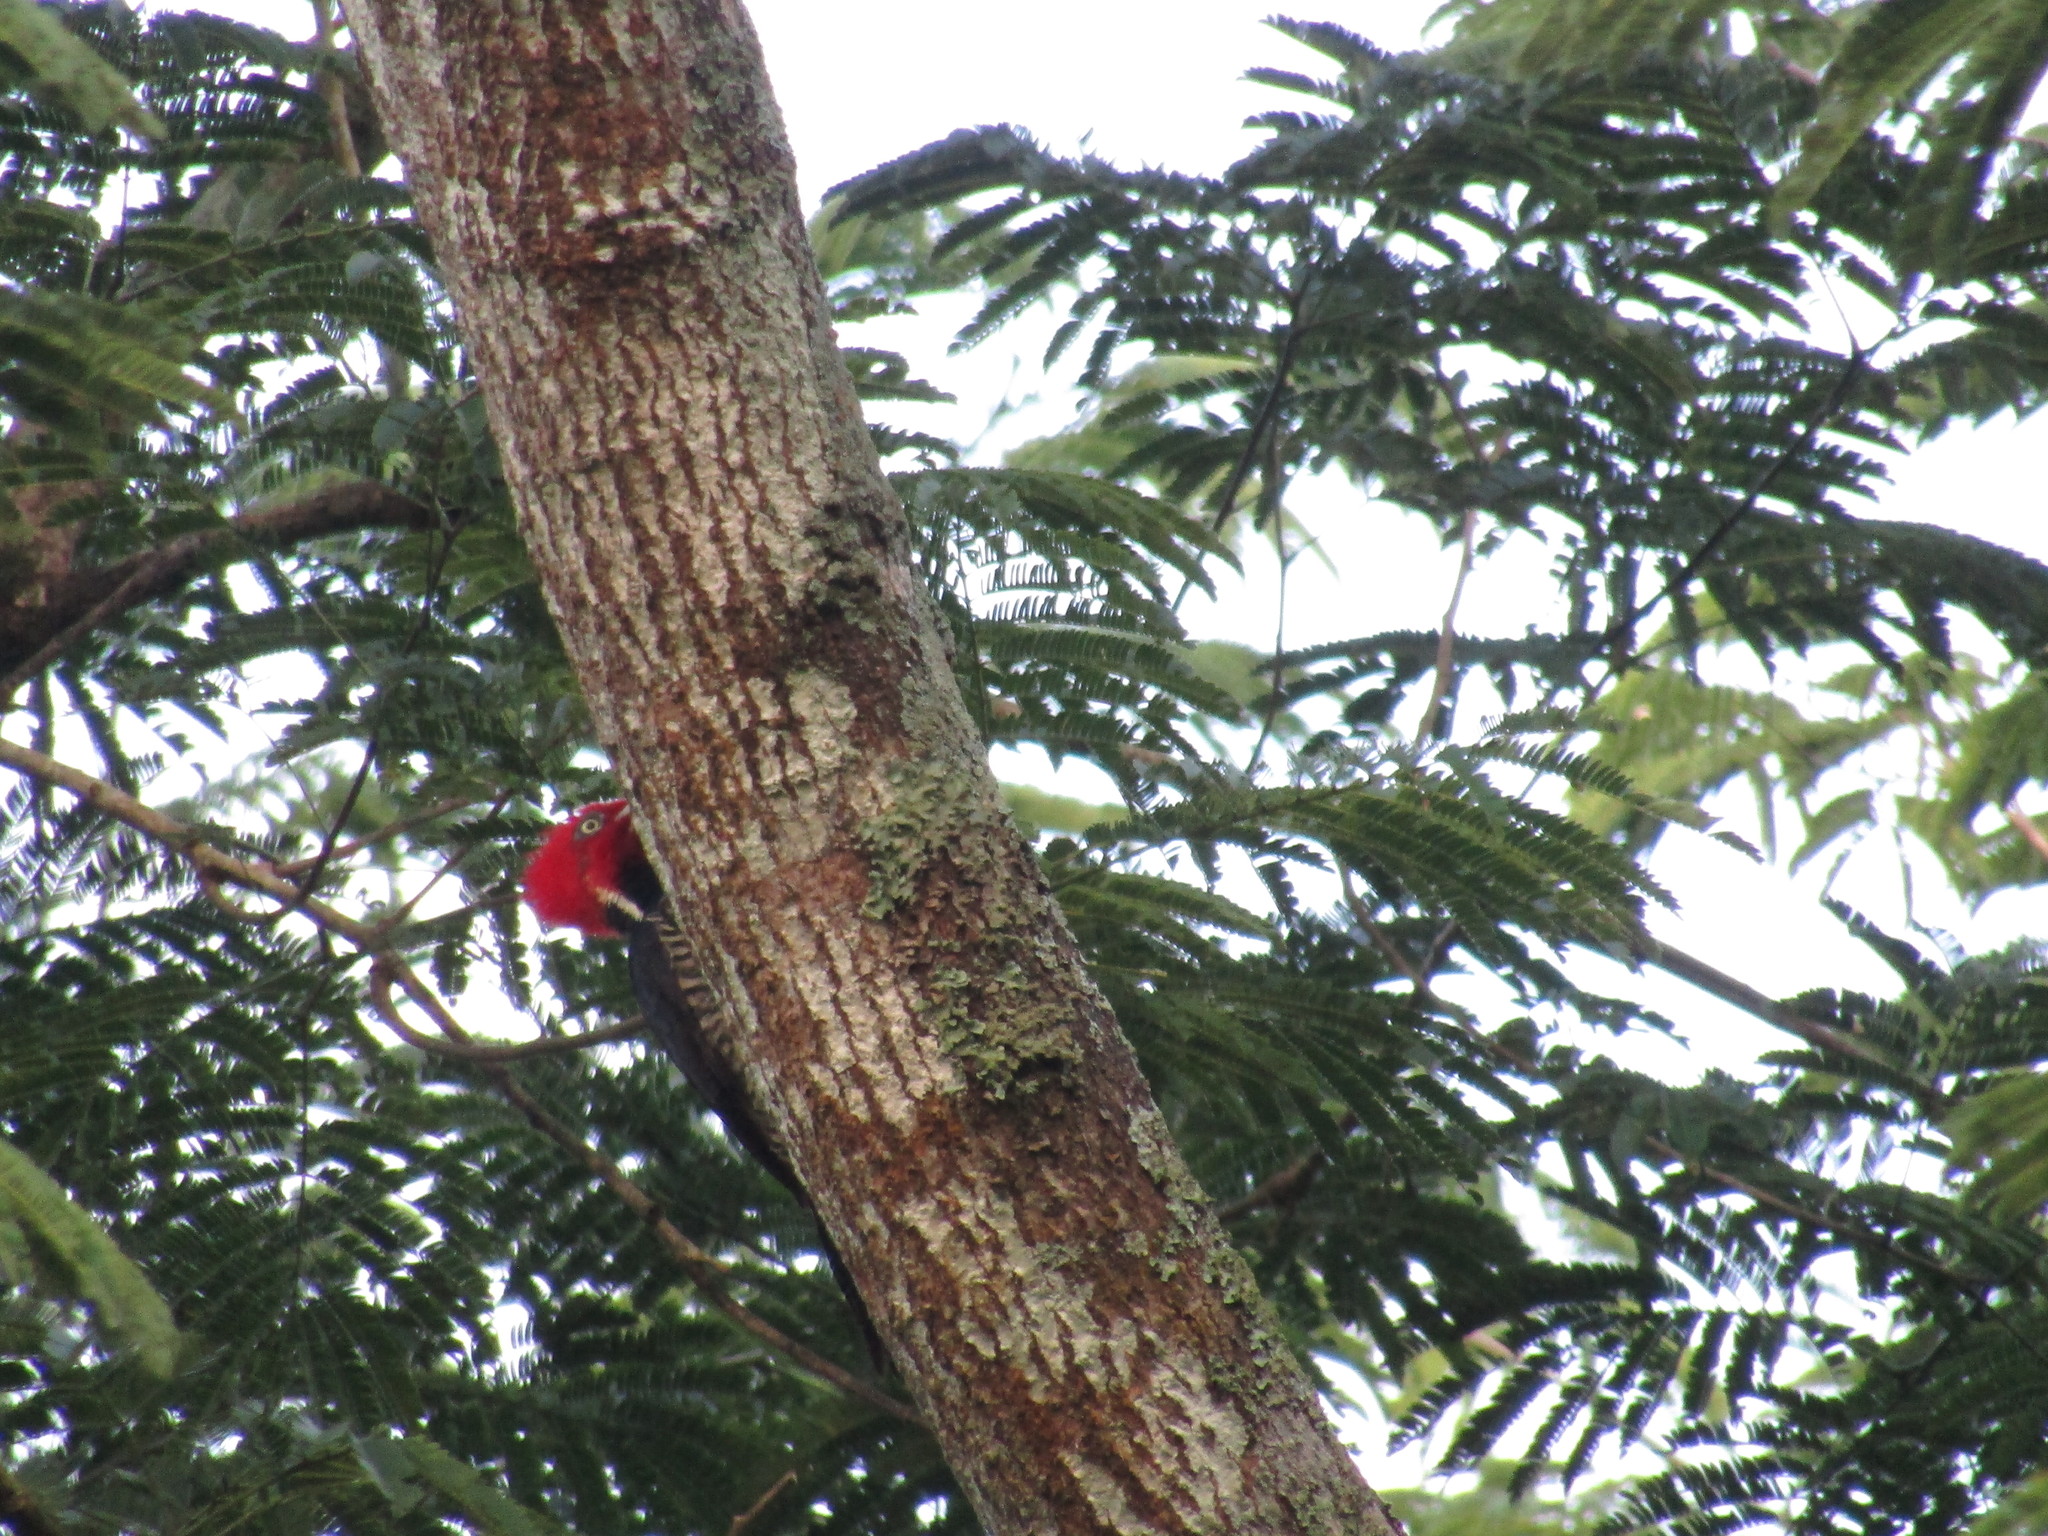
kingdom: Animalia
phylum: Chordata
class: Aves
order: Piciformes
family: Picidae
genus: Campephilus
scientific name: Campephilus guatemalensis
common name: Pale-billed woodpecker
